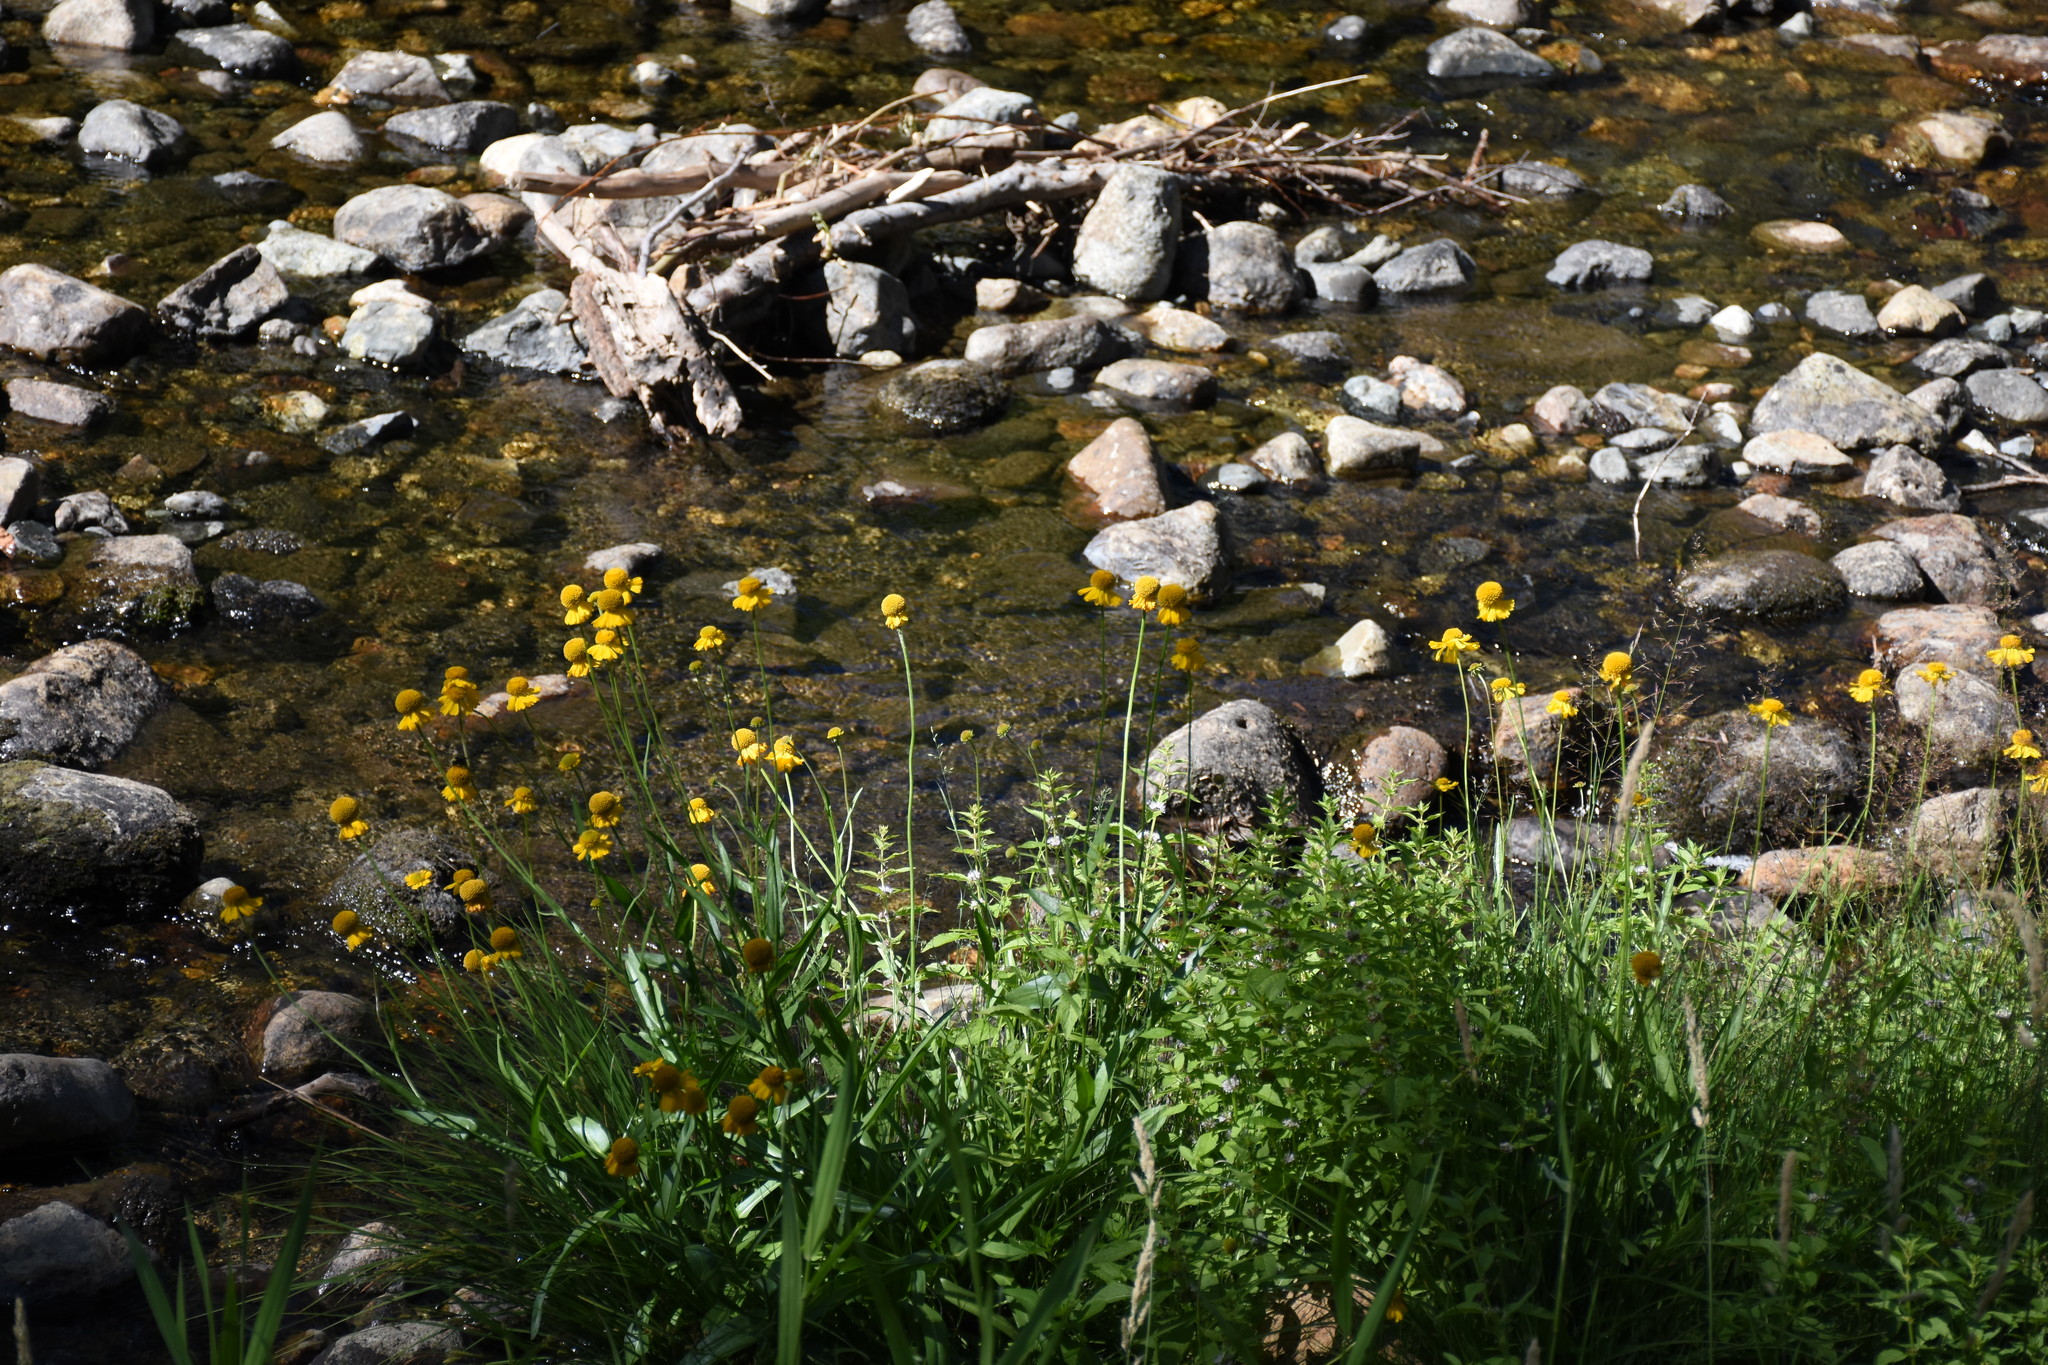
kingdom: Plantae
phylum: Tracheophyta
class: Magnoliopsida
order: Asterales
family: Asteraceae
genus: Helenium
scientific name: Helenium bigelovii
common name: Bigelow's sneezeweed
